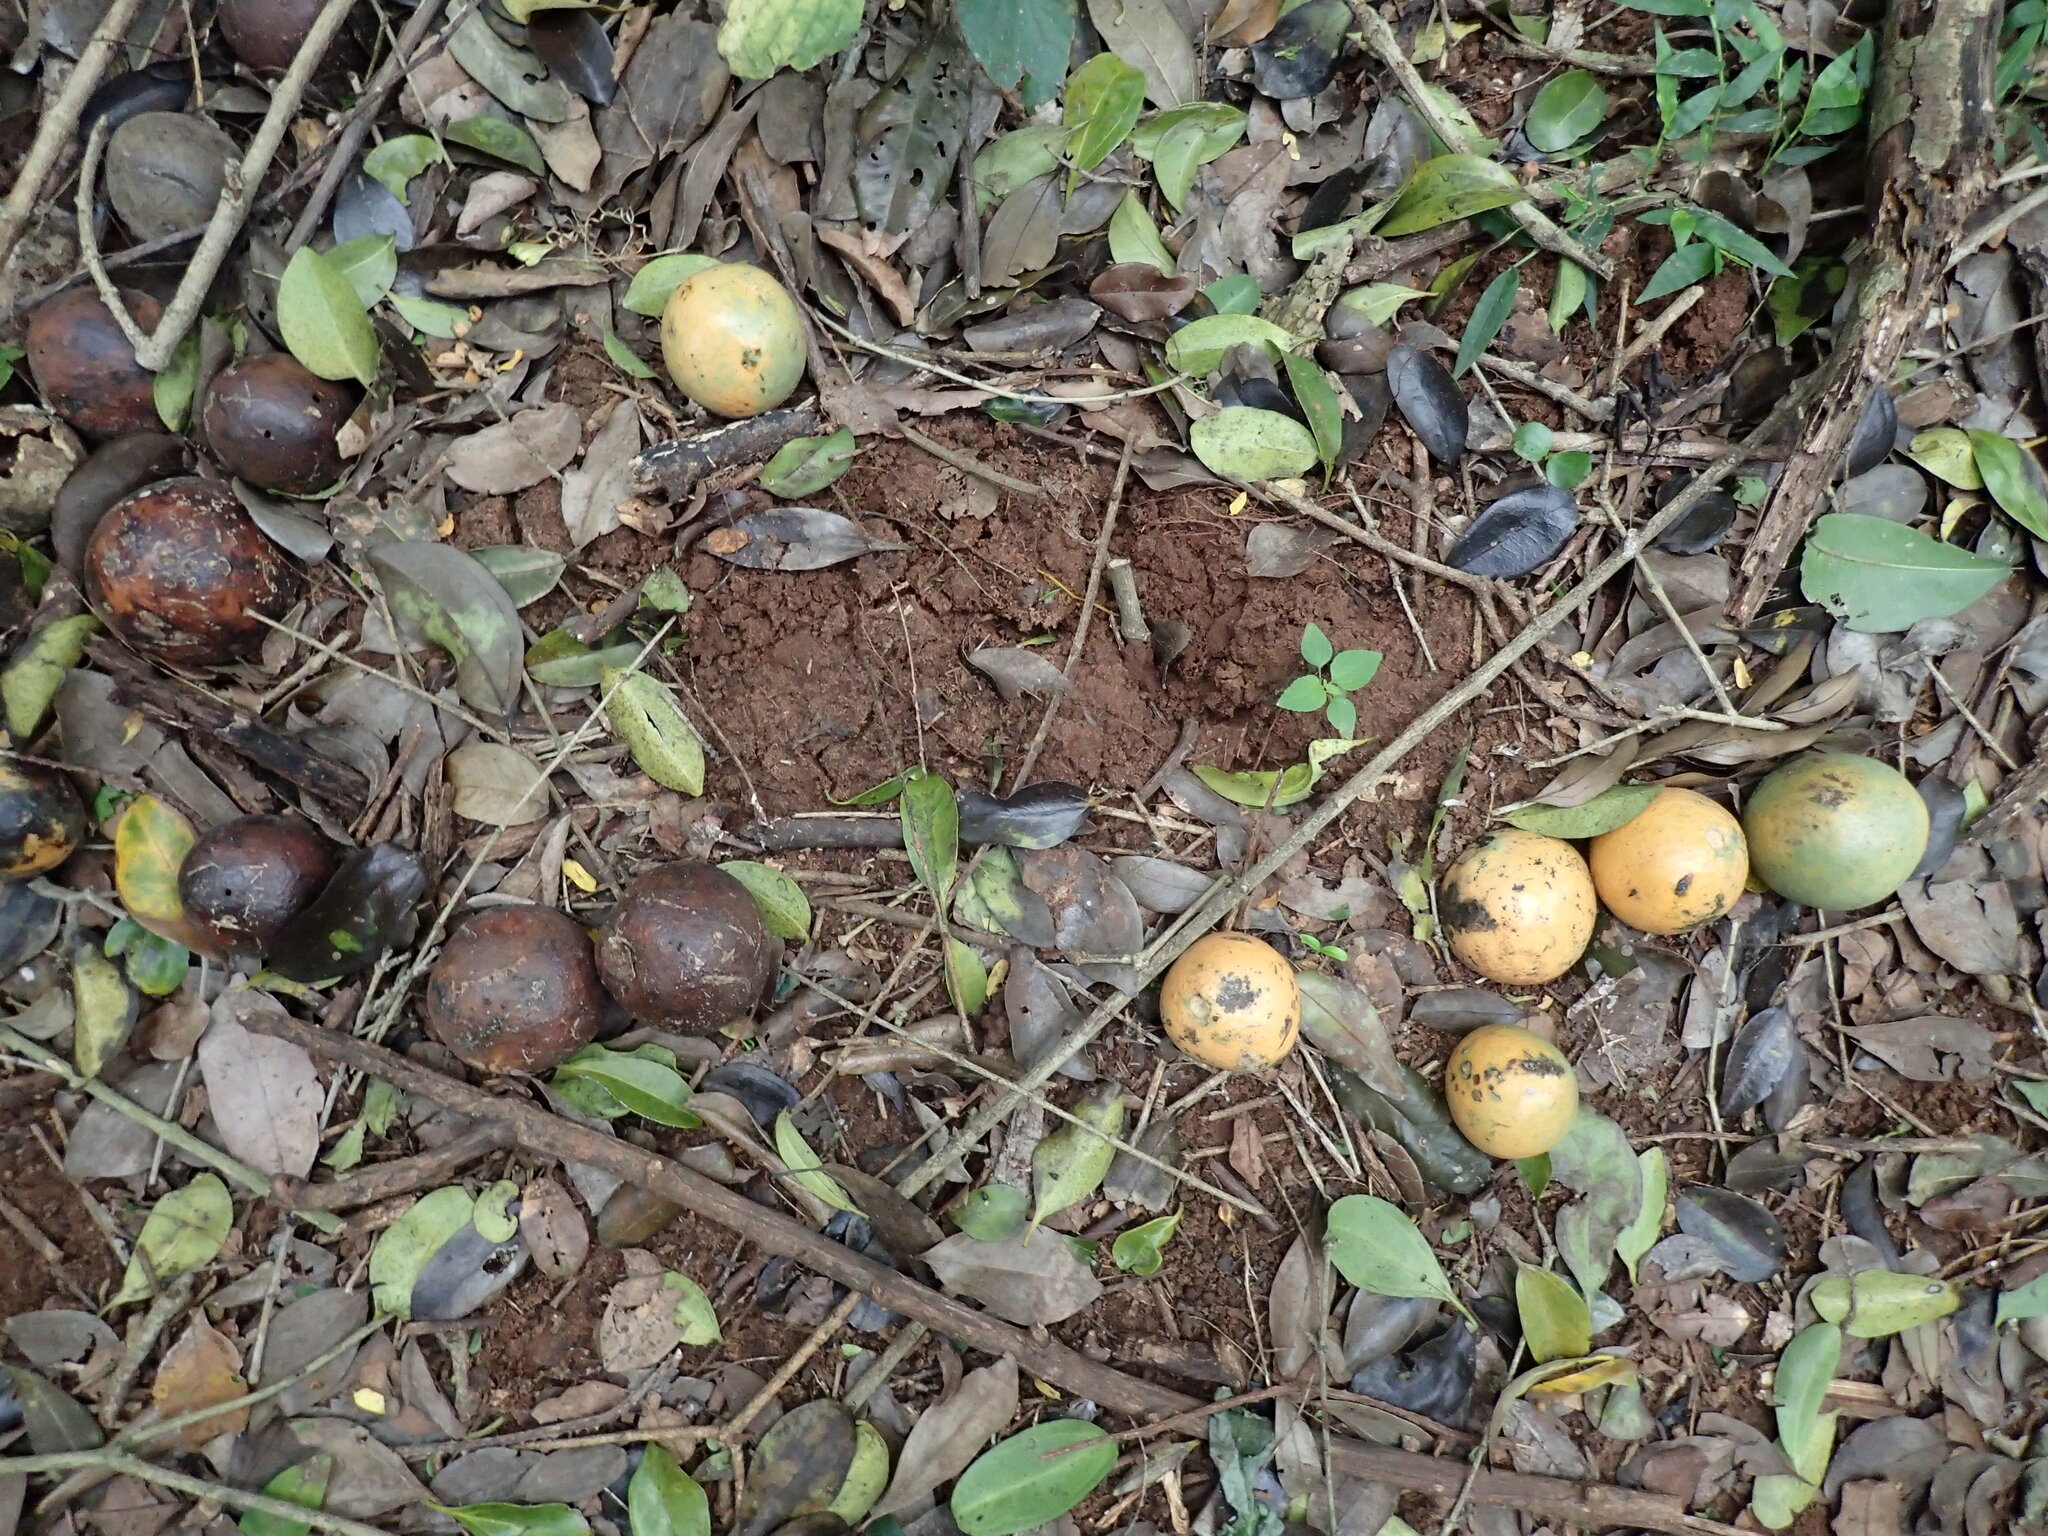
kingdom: Plantae
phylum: Tracheophyta
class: Magnoliopsida
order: Gentianales
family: Loganiaceae
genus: Strychnos
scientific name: Strychnos gerrardii
